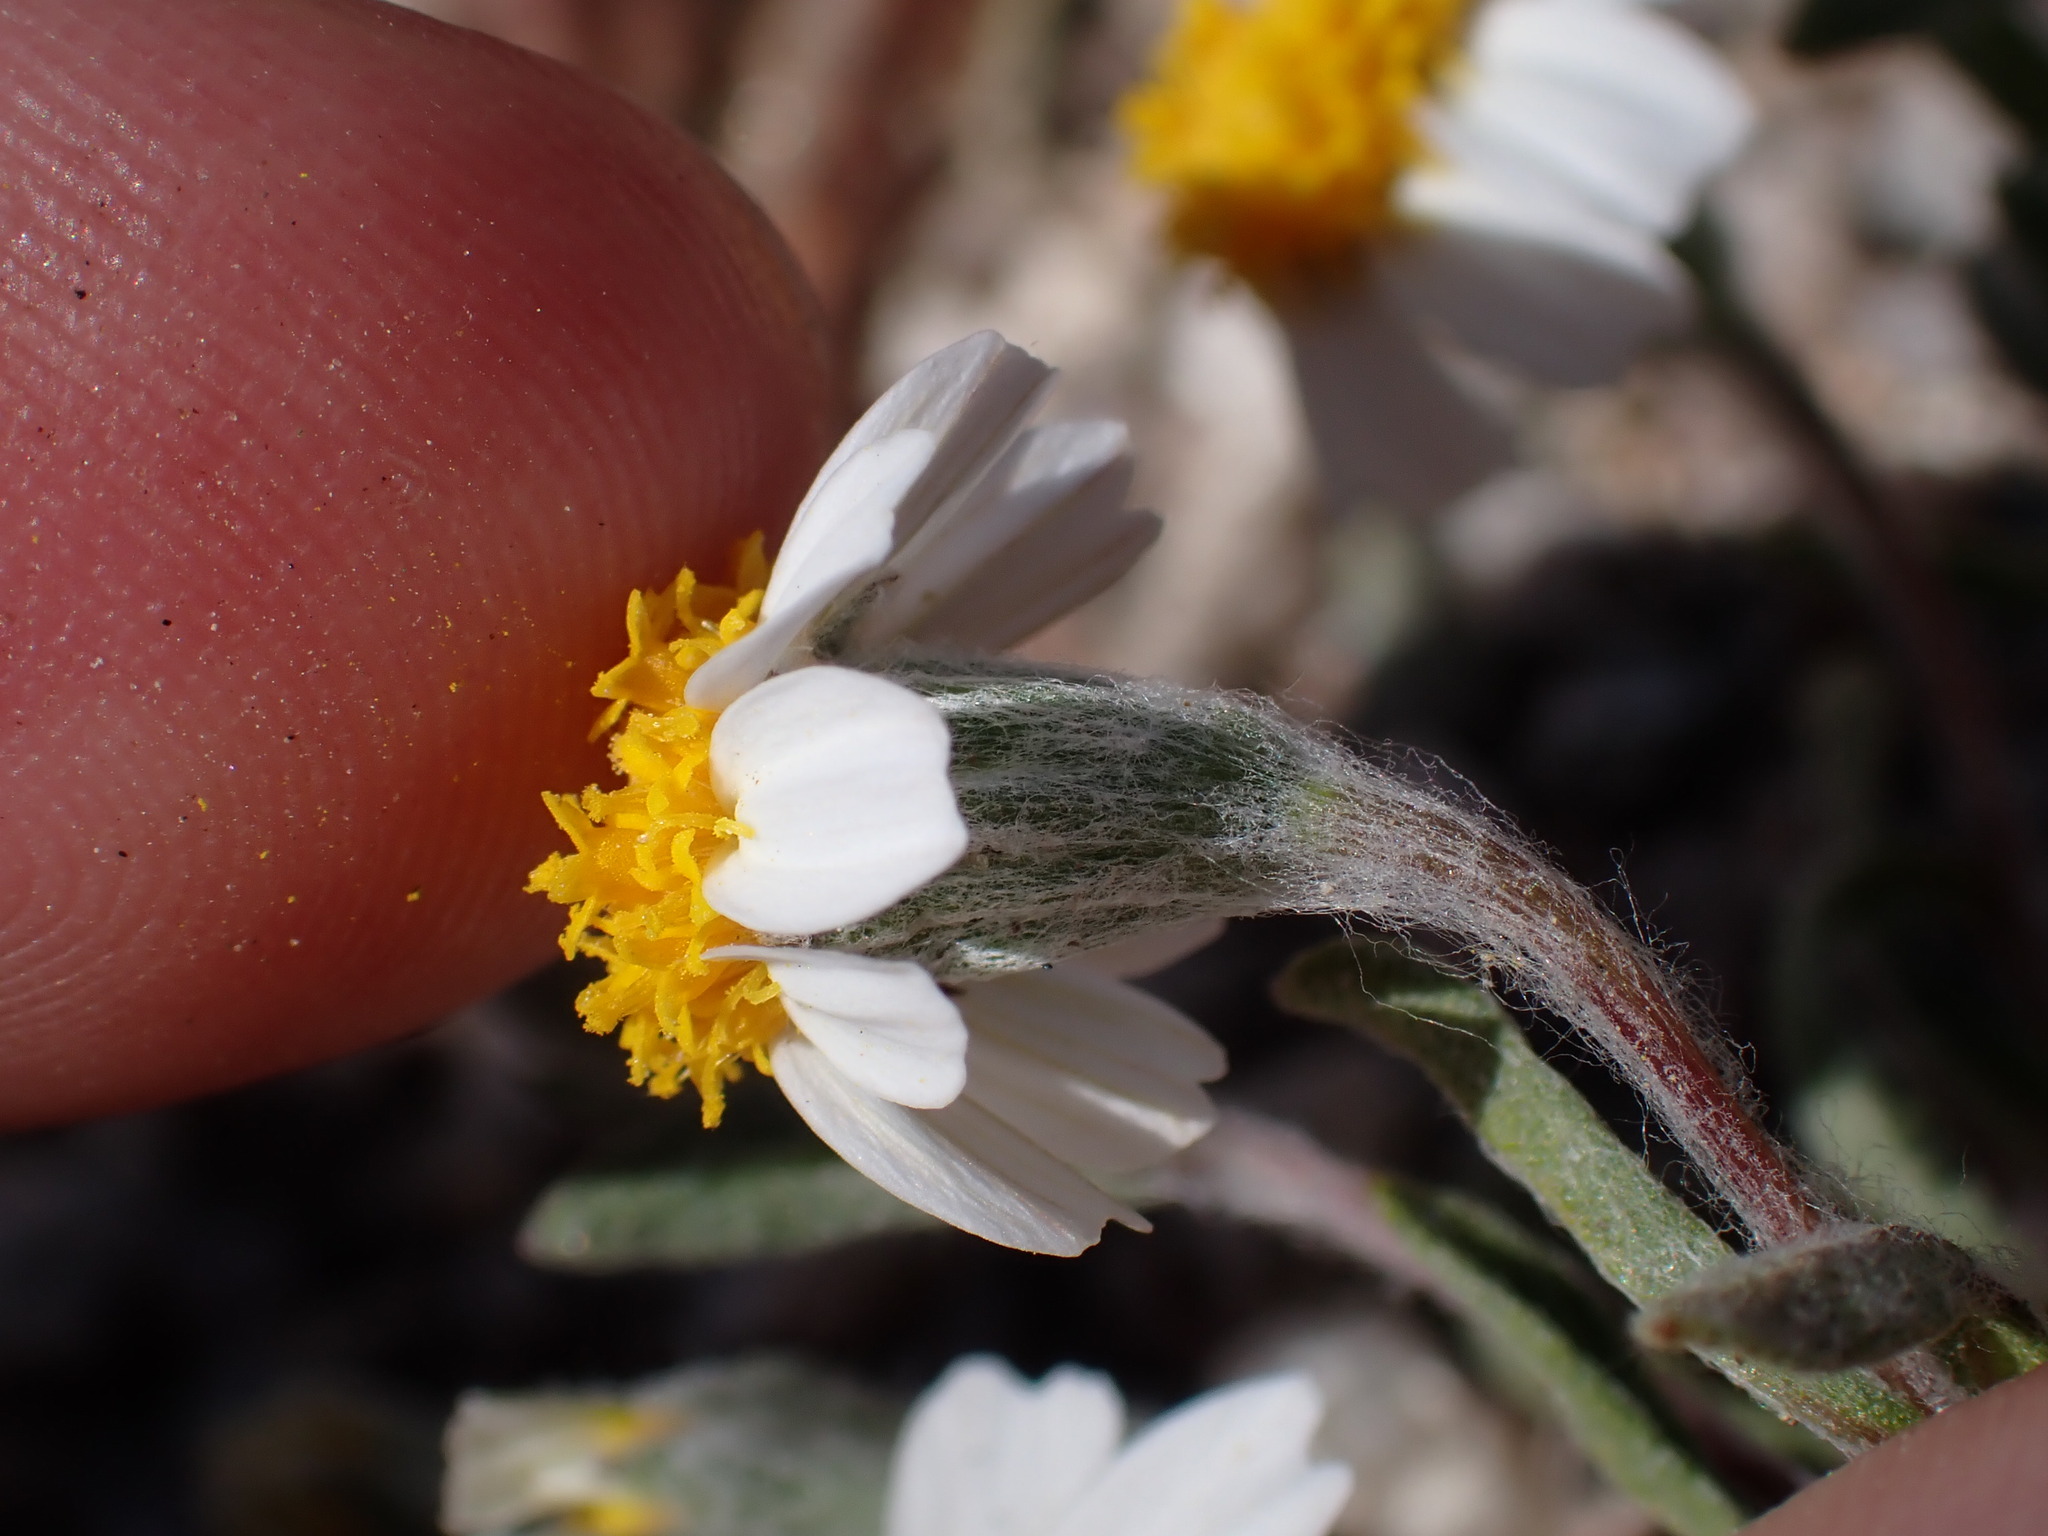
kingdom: Plantae
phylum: Tracheophyta
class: Magnoliopsida
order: Asterales
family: Asteraceae
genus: Eriophyllum
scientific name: Eriophyllum lanosum
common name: White easter-bonnets
